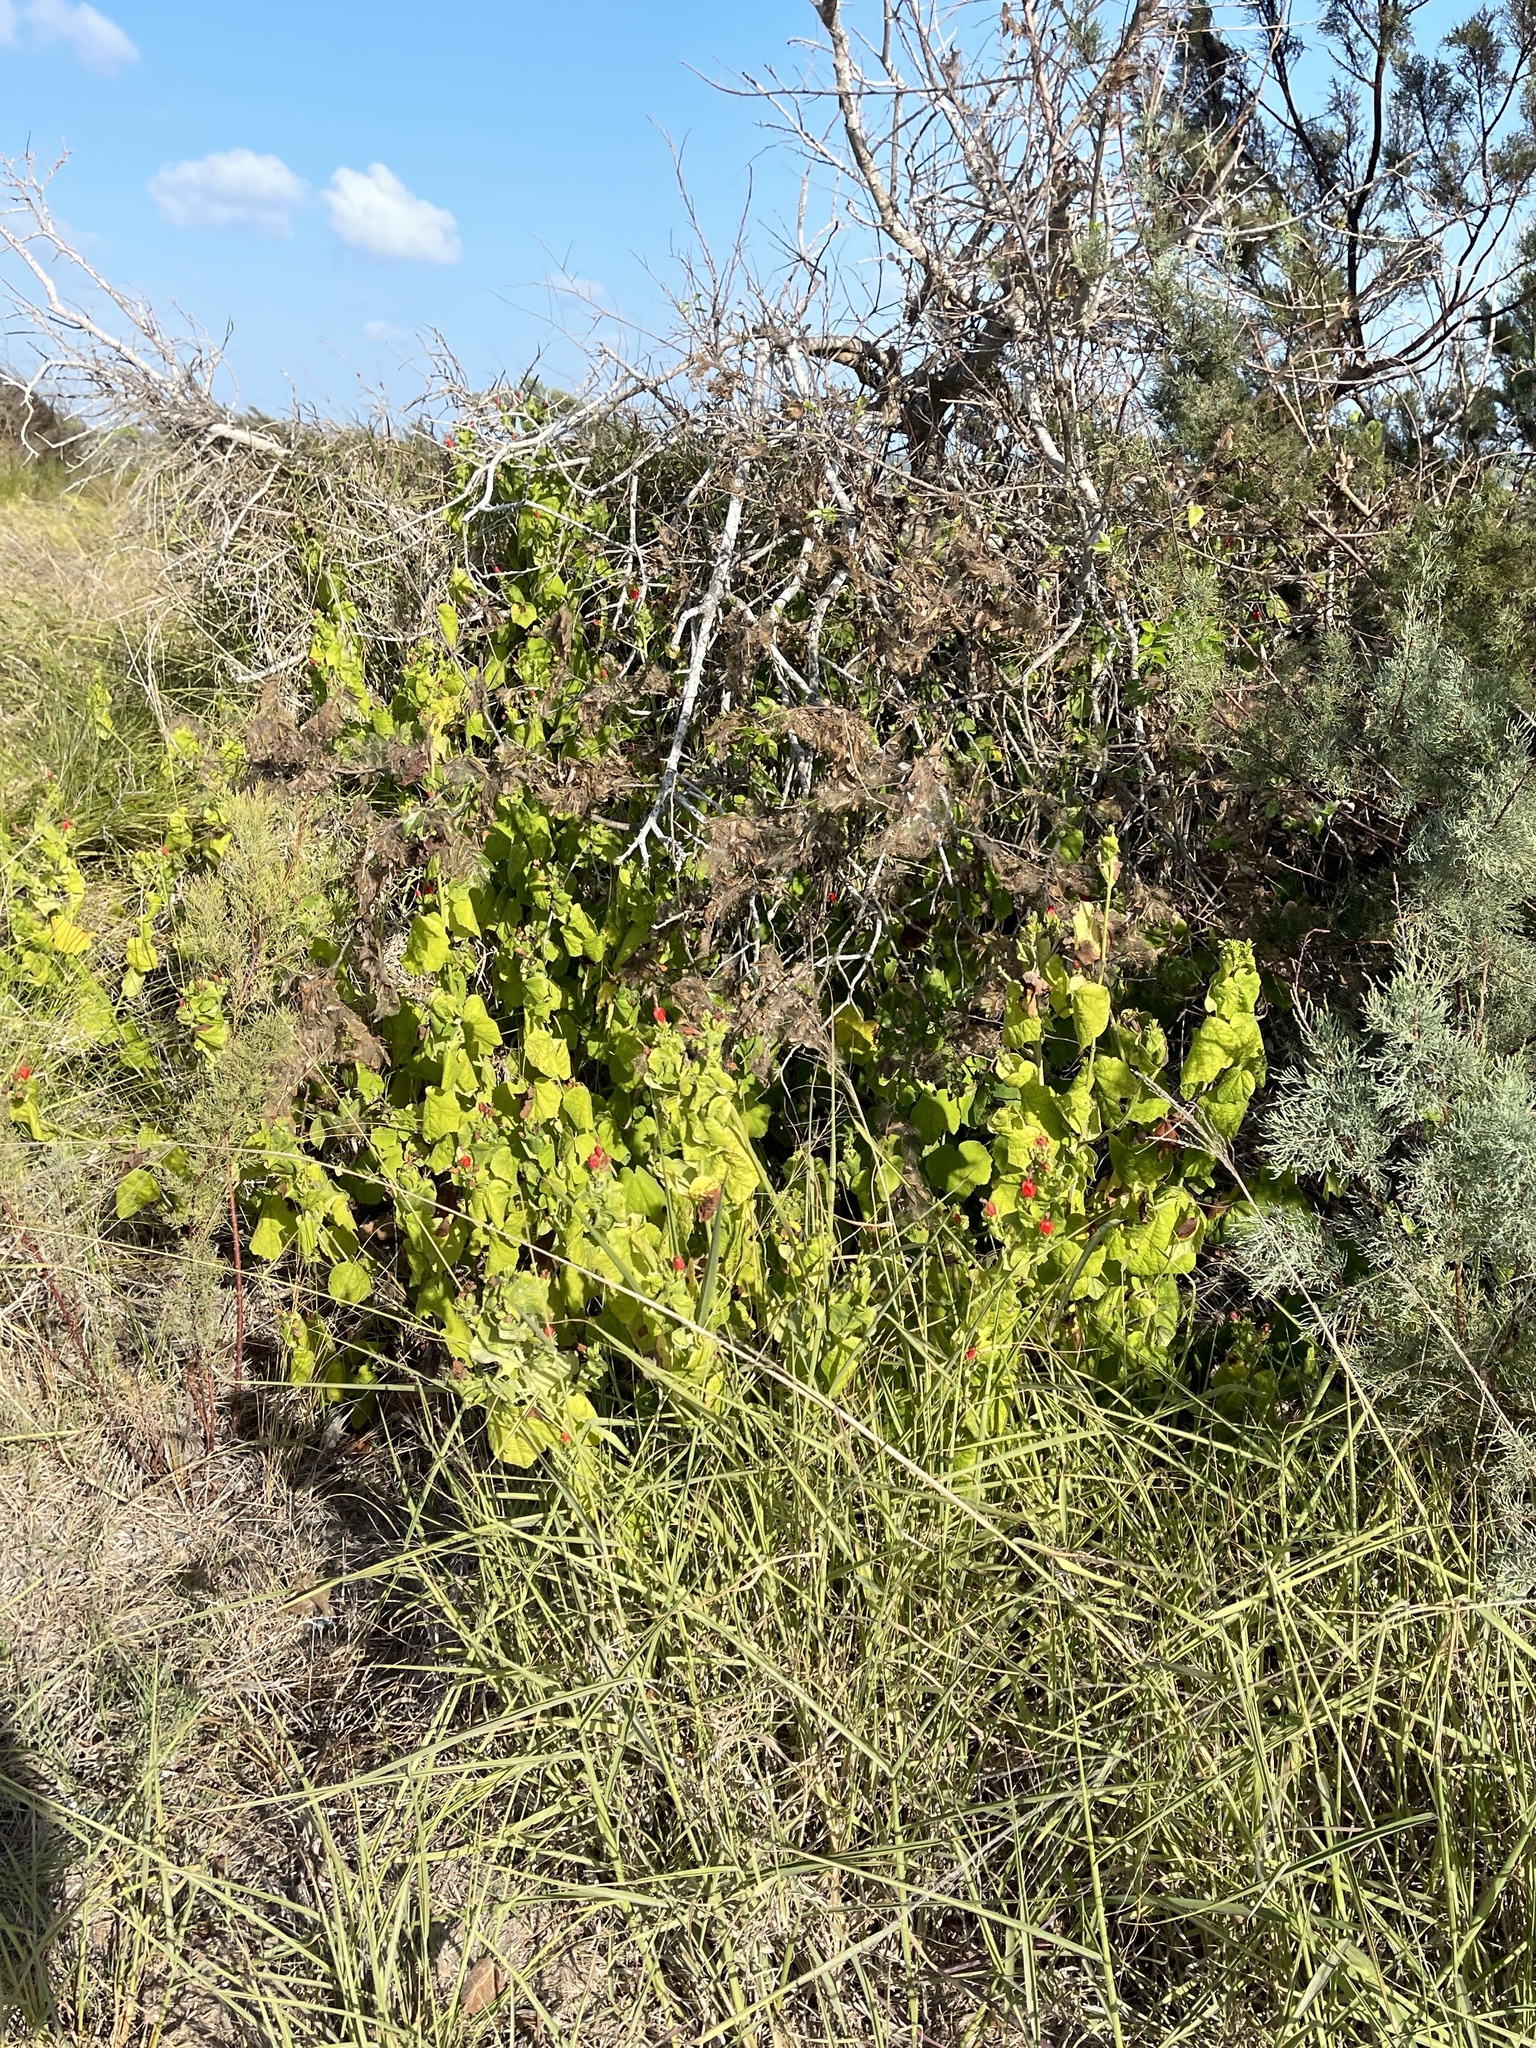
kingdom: Plantae
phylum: Tracheophyta
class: Magnoliopsida
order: Malvales
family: Malvaceae
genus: Malvaviscus
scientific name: Malvaviscus arboreus
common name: Wax mallow
